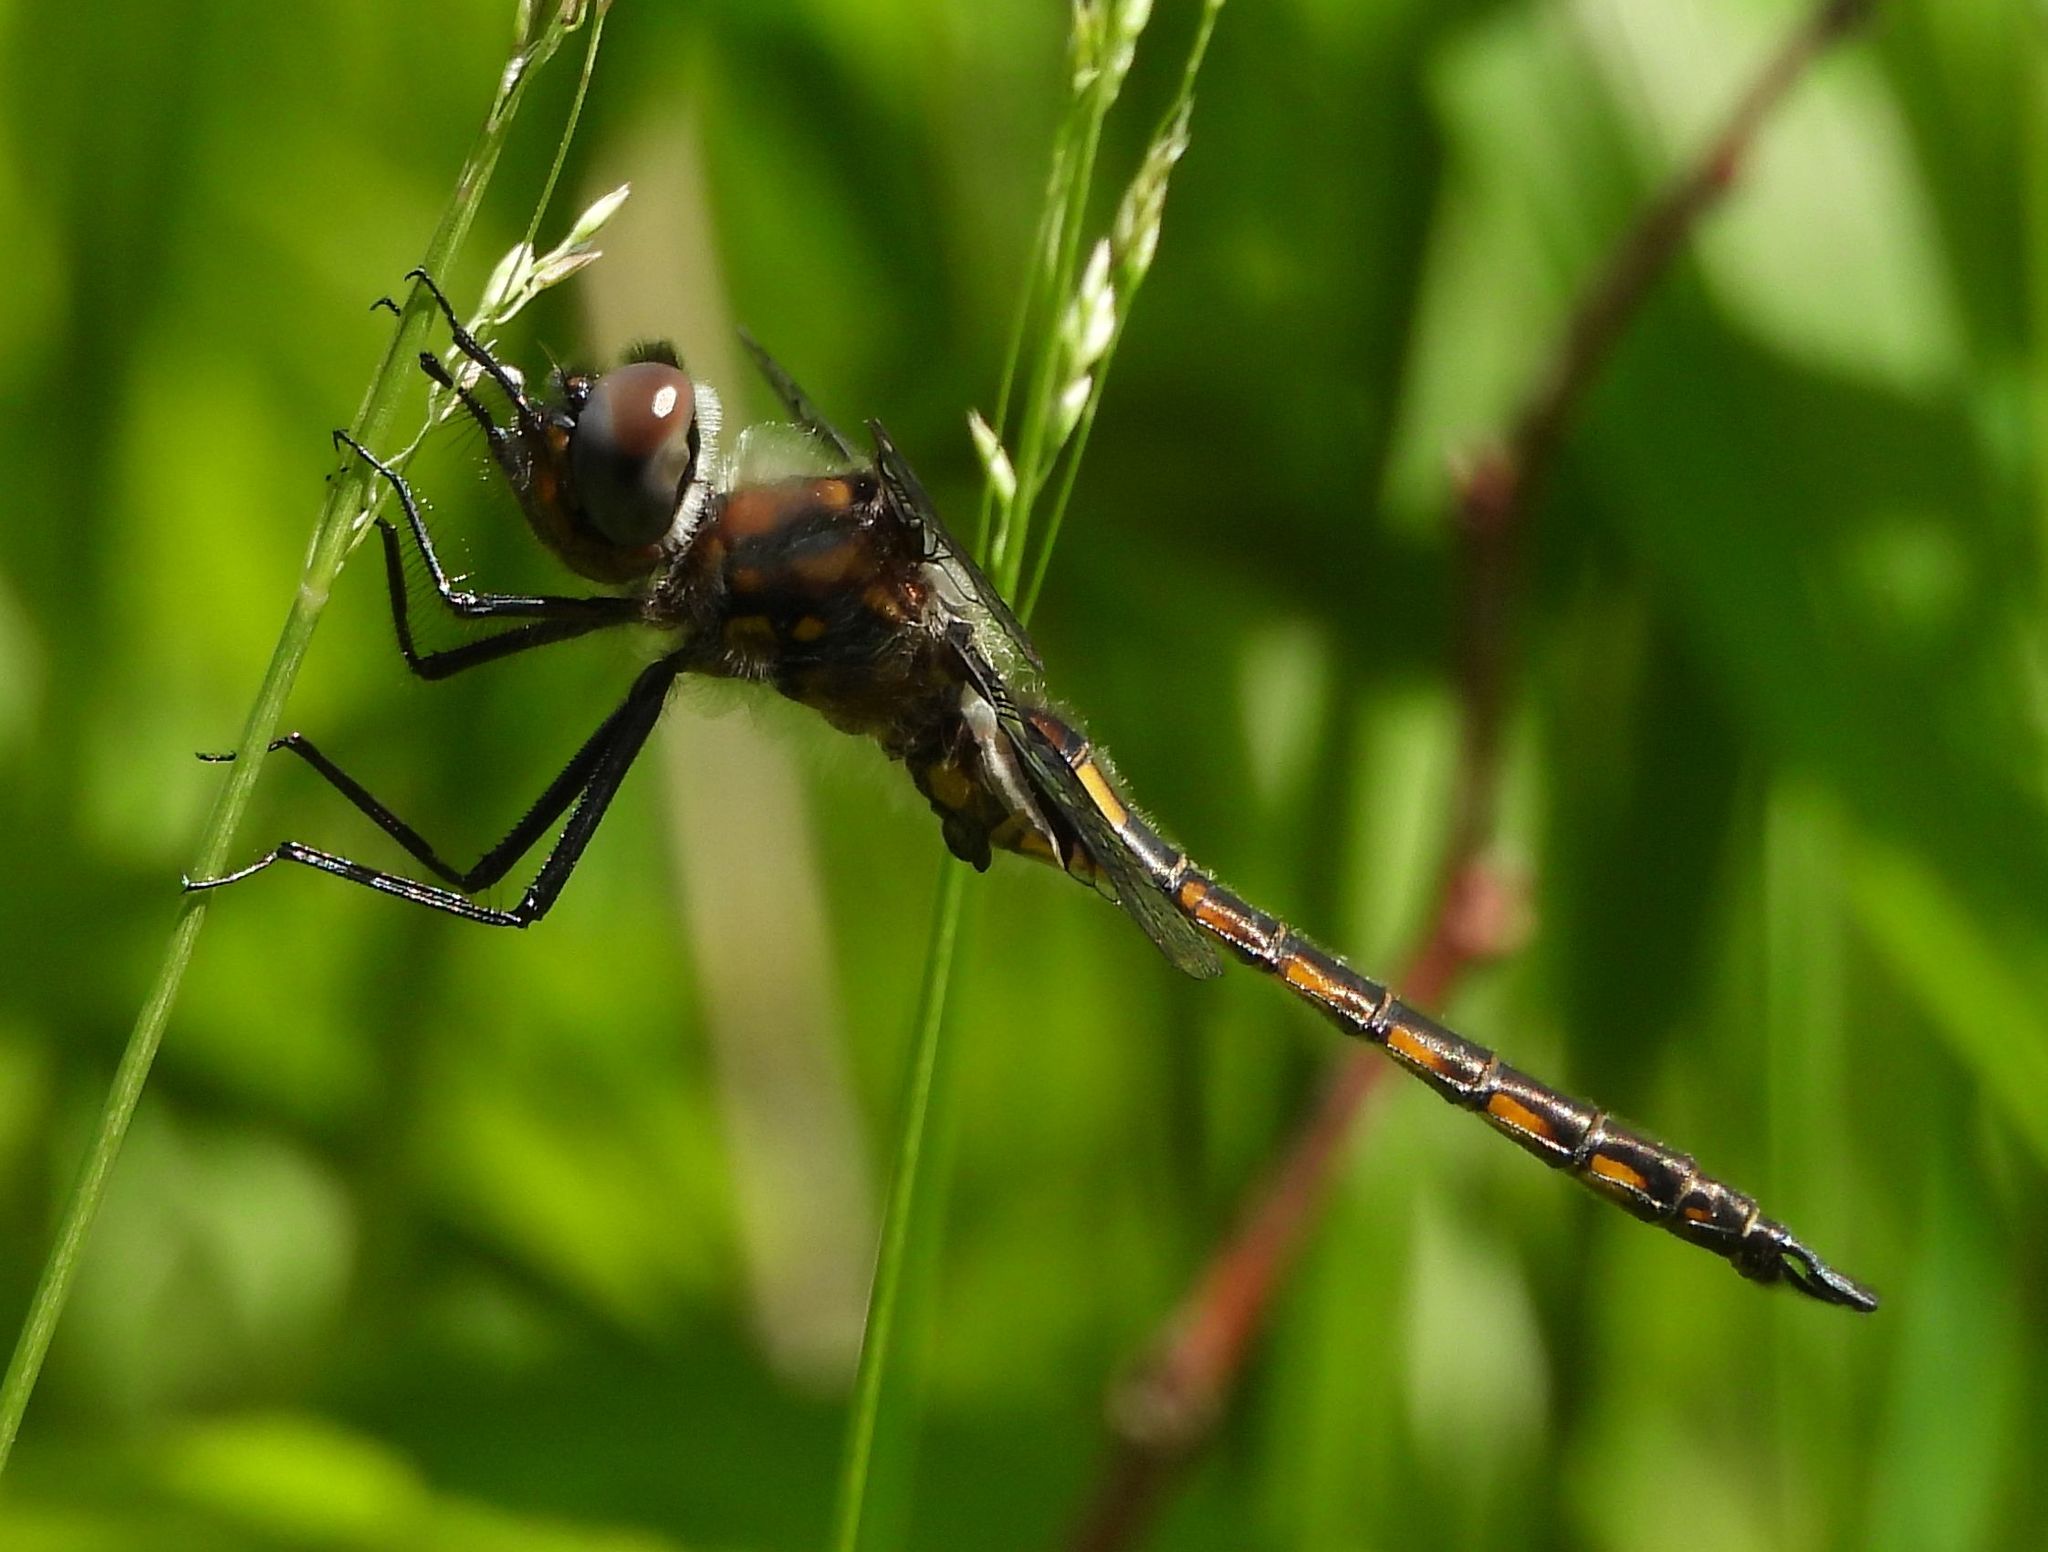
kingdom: Animalia
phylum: Arthropoda
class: Insecta
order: Odonata
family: Corduliidae
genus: Epitheca
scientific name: Epitheca cynosura
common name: Common baskettail
